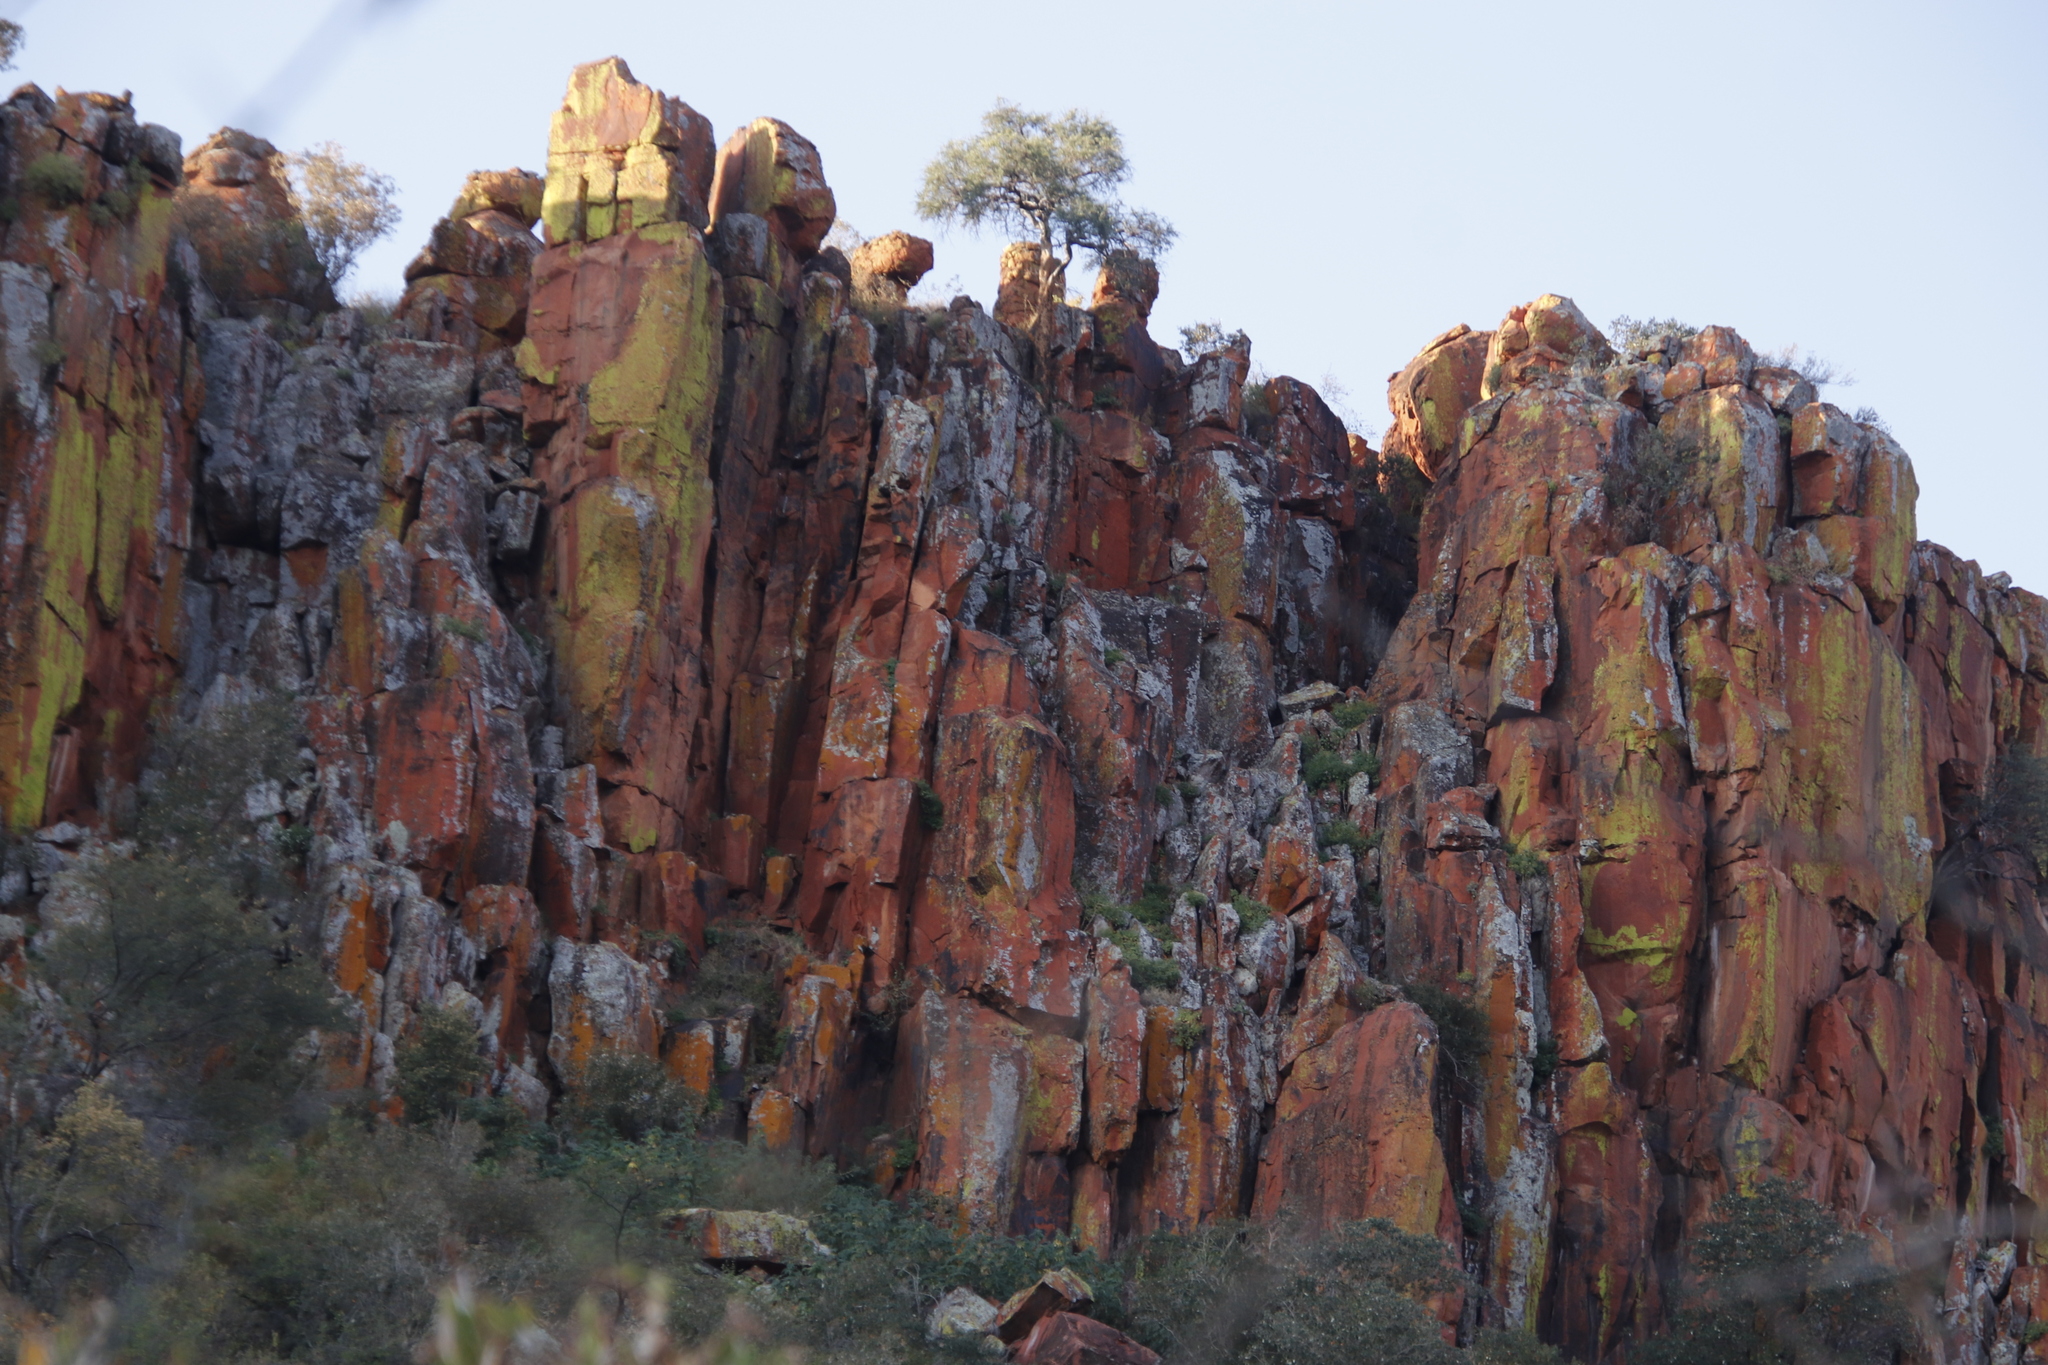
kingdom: Plantae
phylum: Tracheophyta
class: Magnoliopsida
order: Brassicales
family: Capparaceae
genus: Boscia
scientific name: Boscia albitrunca
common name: Caper bush
